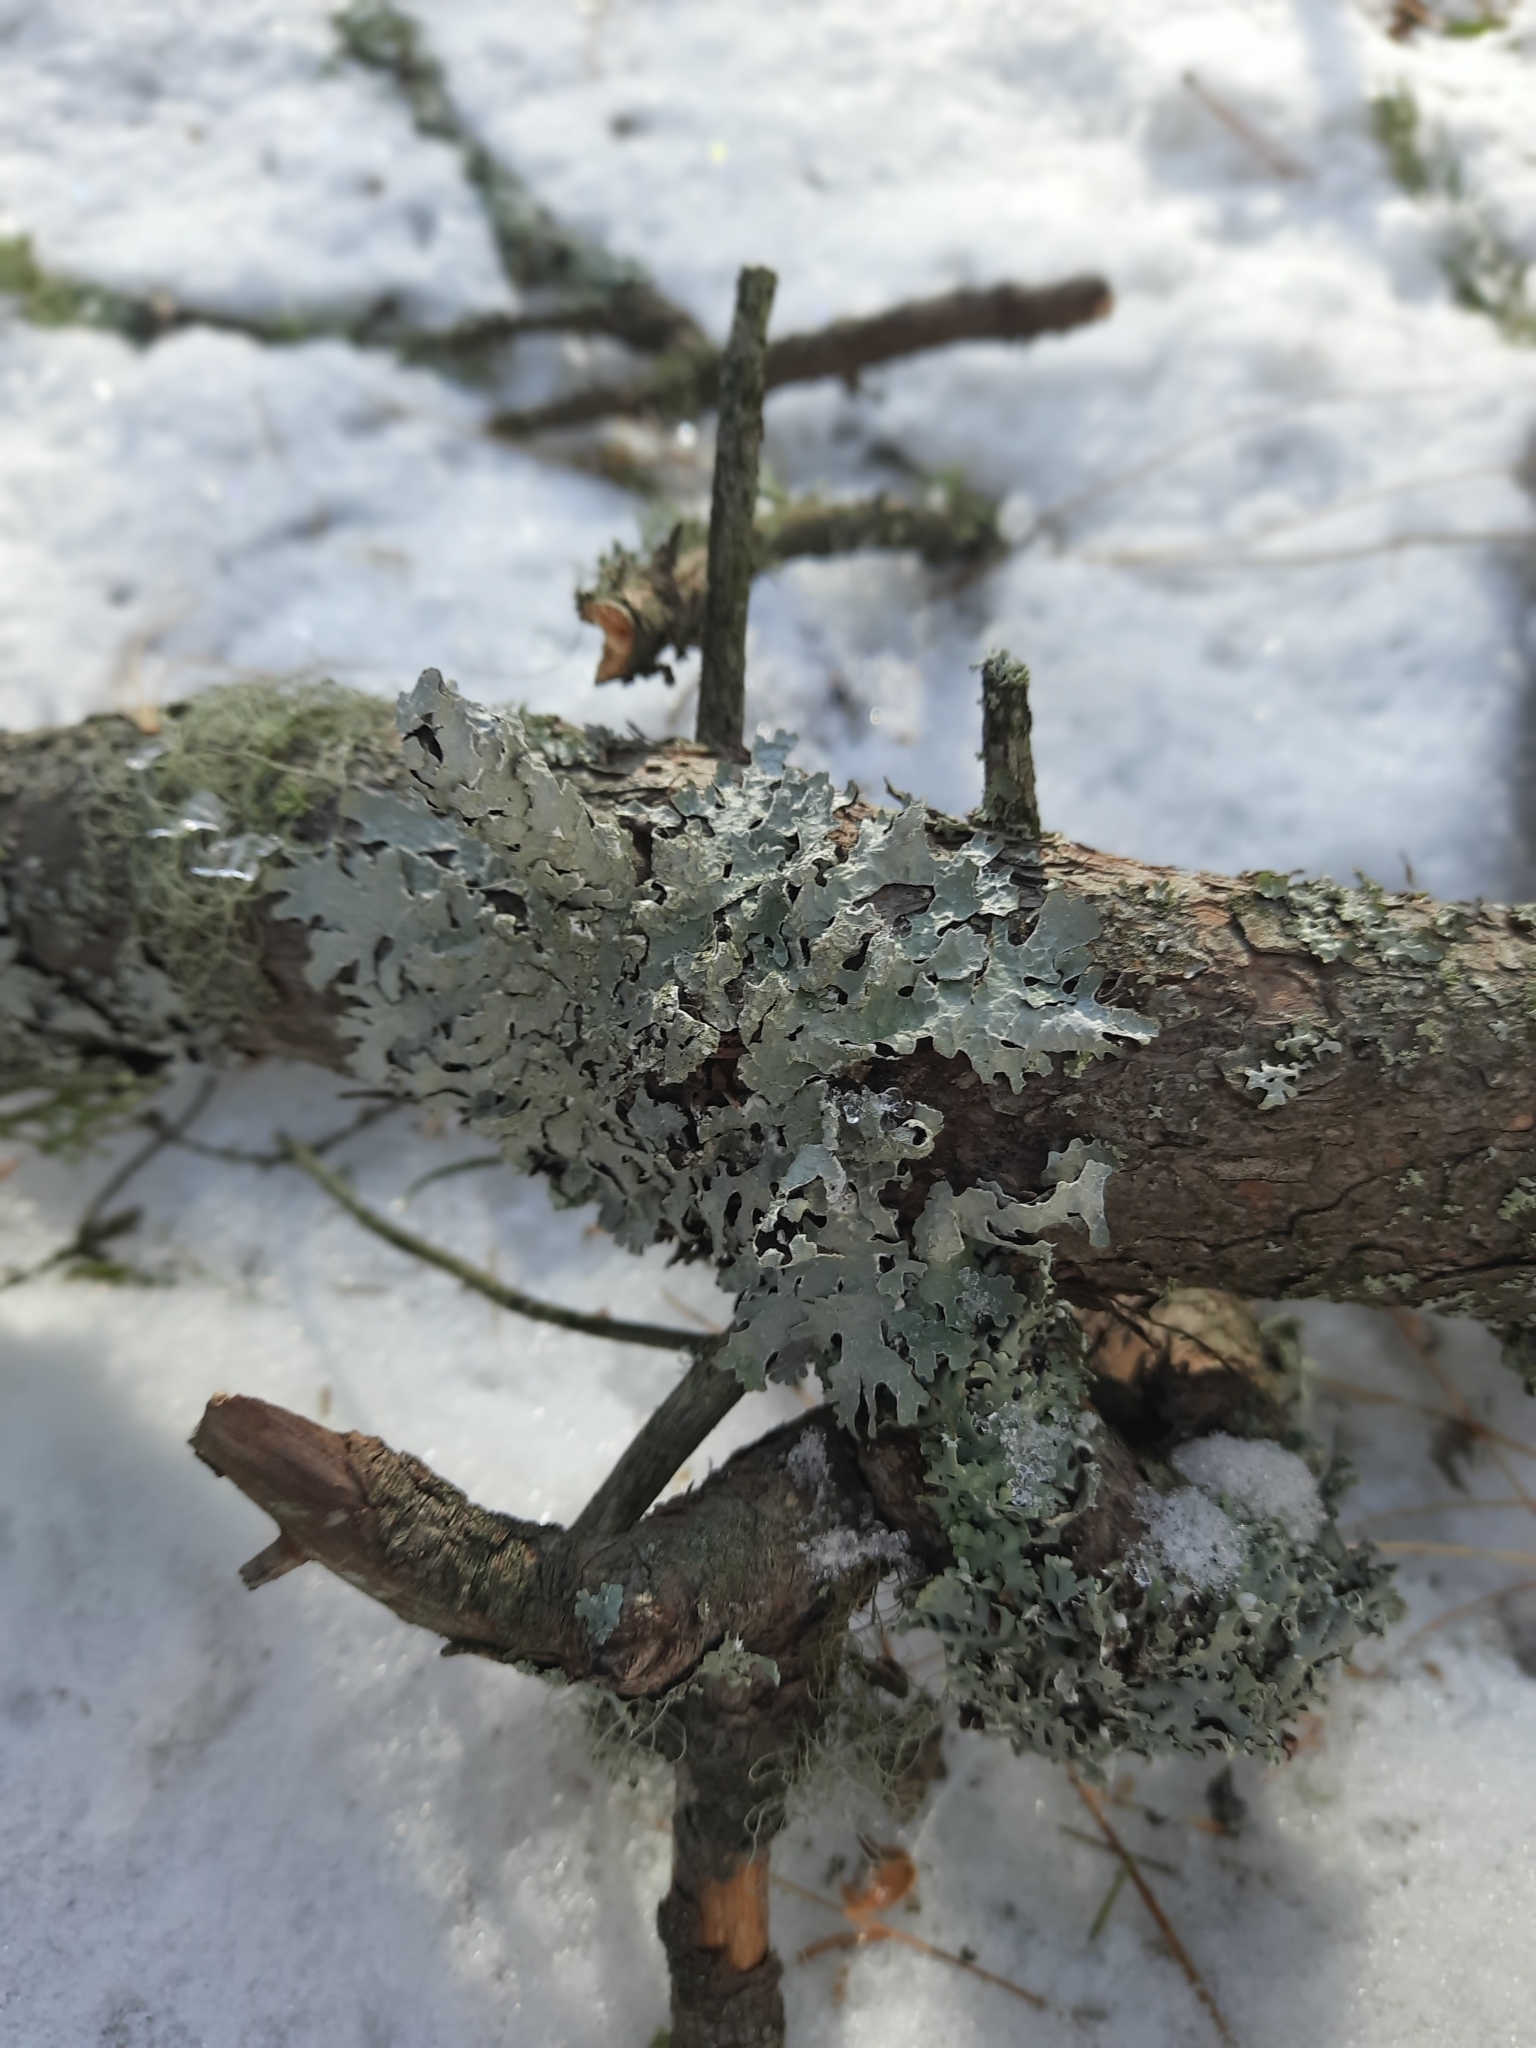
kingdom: Fungi
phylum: Ascomycota
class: Lecanoromycetes
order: Lecanorales
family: Parmeliaceae
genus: Parmelia
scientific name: Parmelia sulcata
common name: Netted shield lichen
